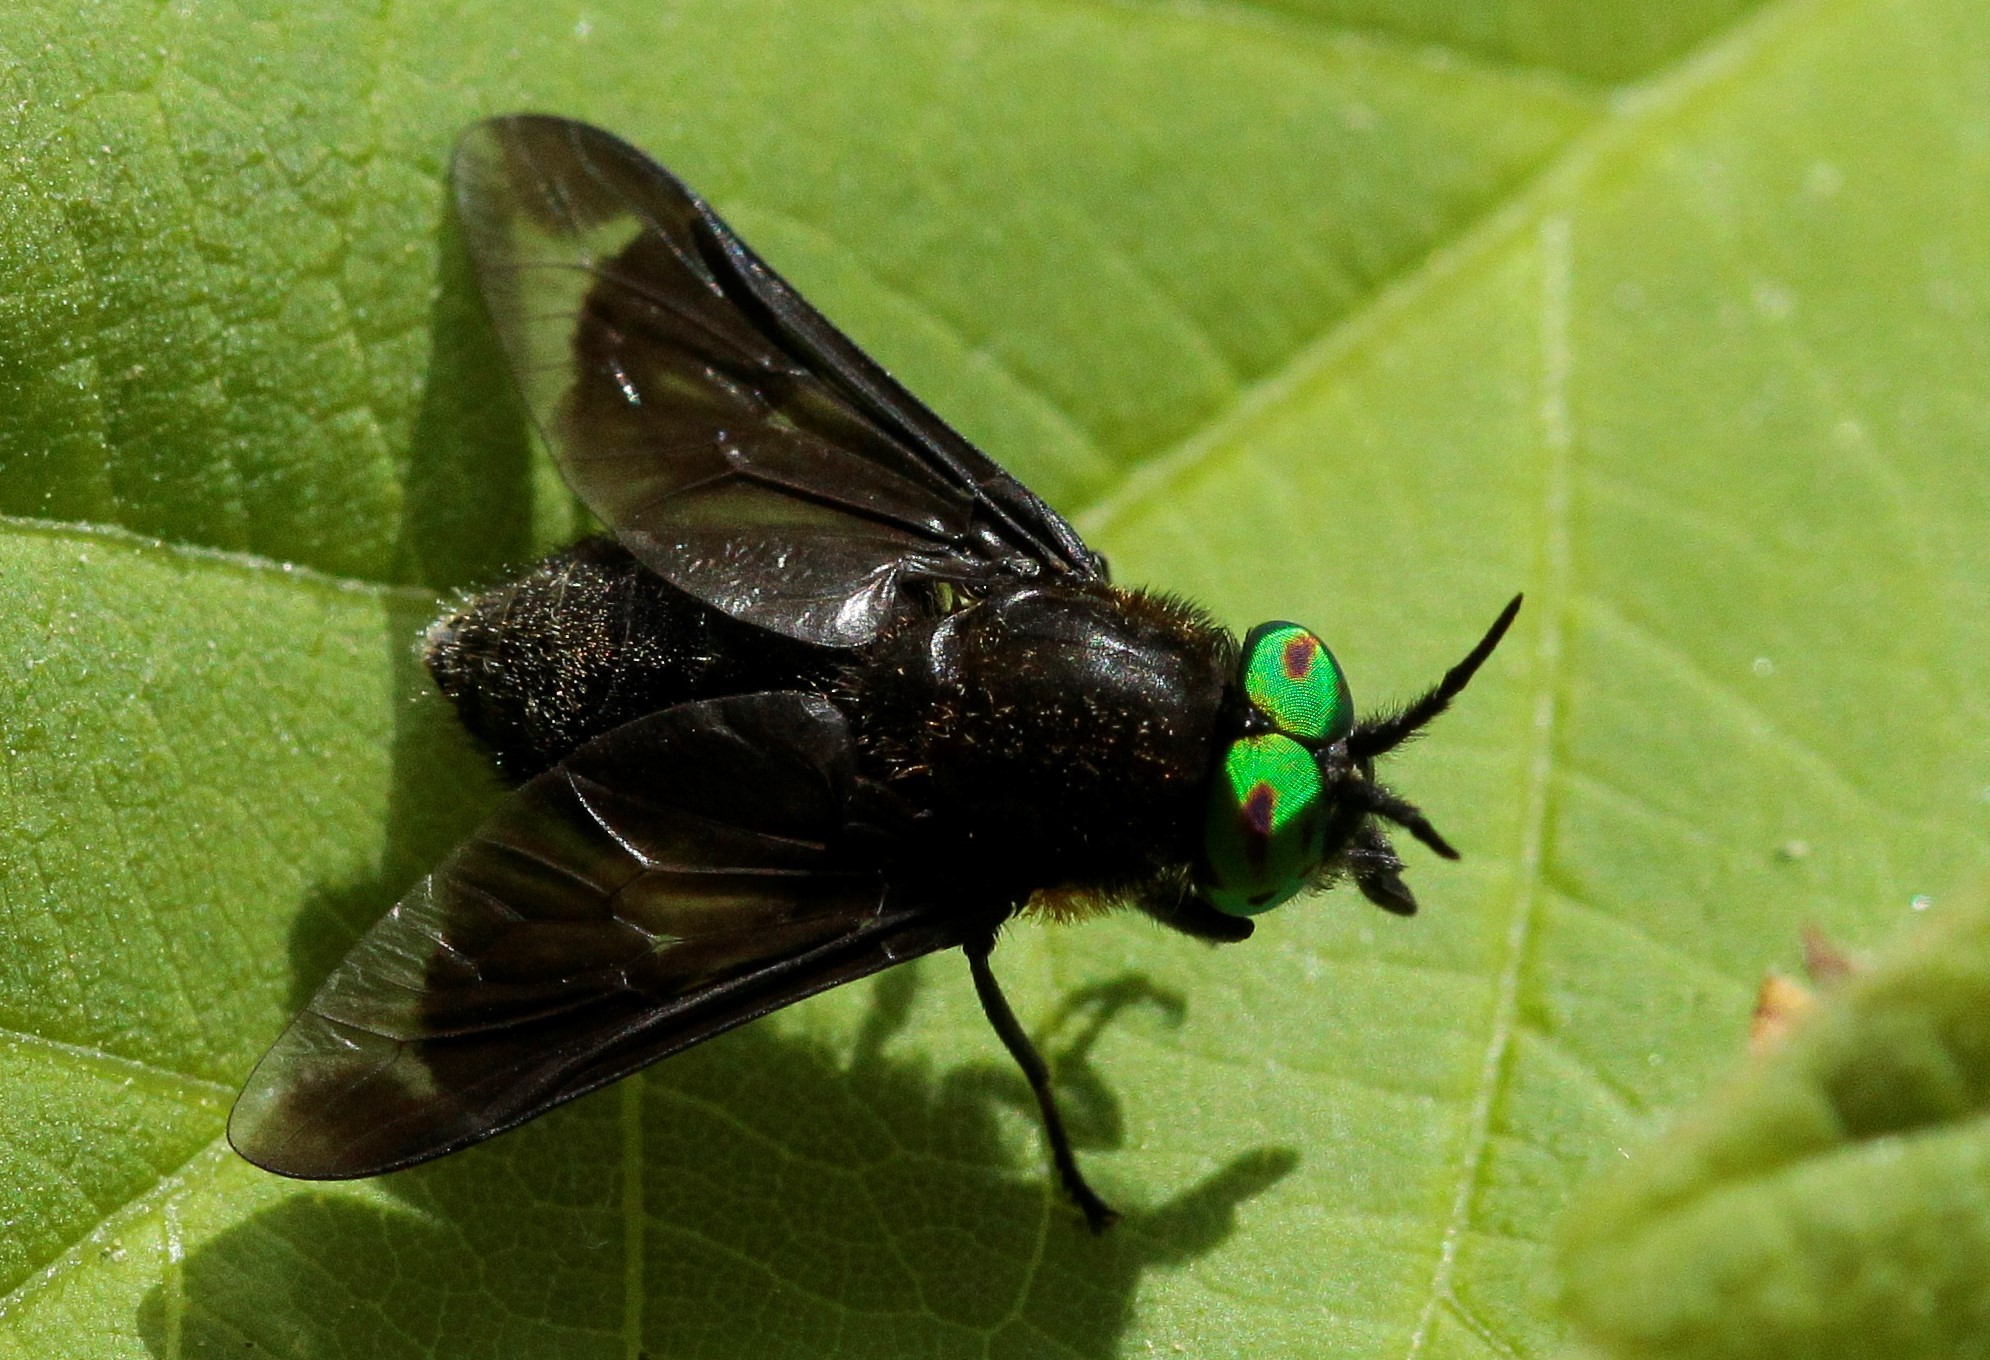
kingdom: Animalia
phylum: Arthropoda
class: Insecta
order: Diptera
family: Tabanidae
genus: Chrysops
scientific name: Chrysops caecutiens
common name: Splayed deerfly
